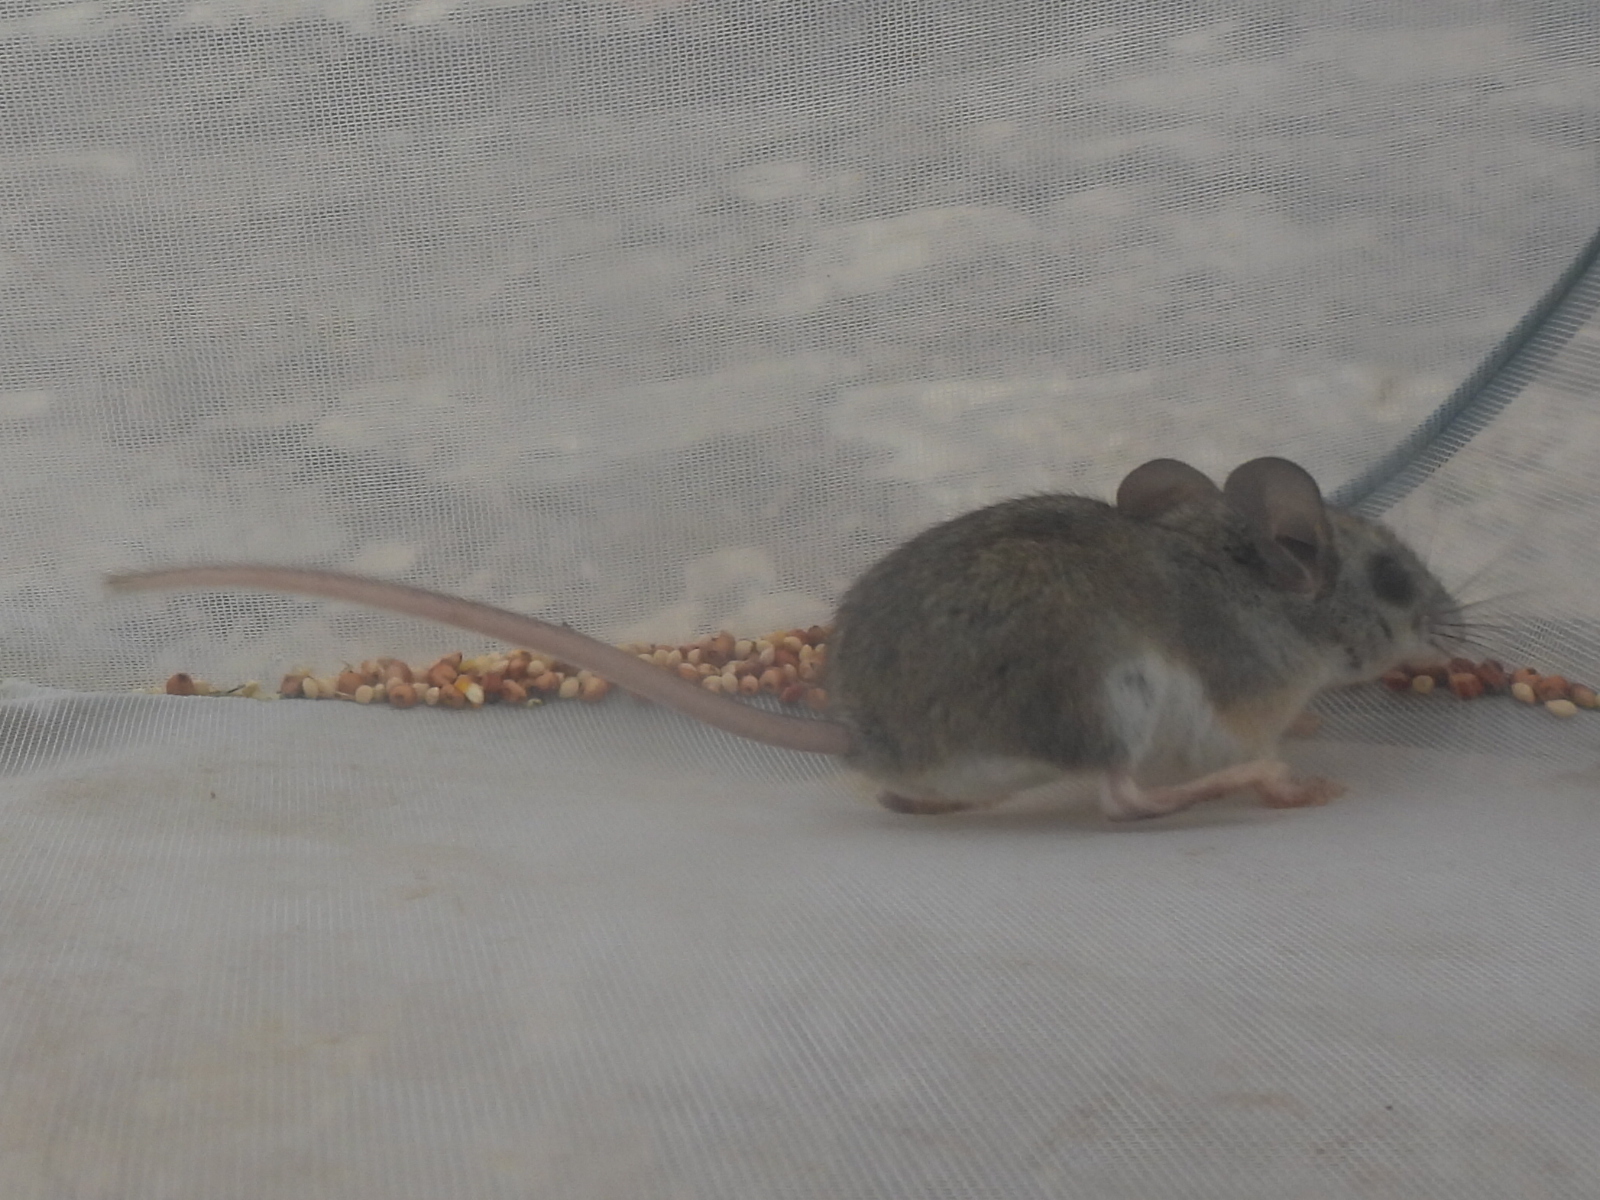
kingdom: Animalia
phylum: Chordata
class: Mammalia
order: Rodentia
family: Cricetidae
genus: Peromyscus
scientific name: Peromyscus pectoralis
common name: White-ankled mouse
